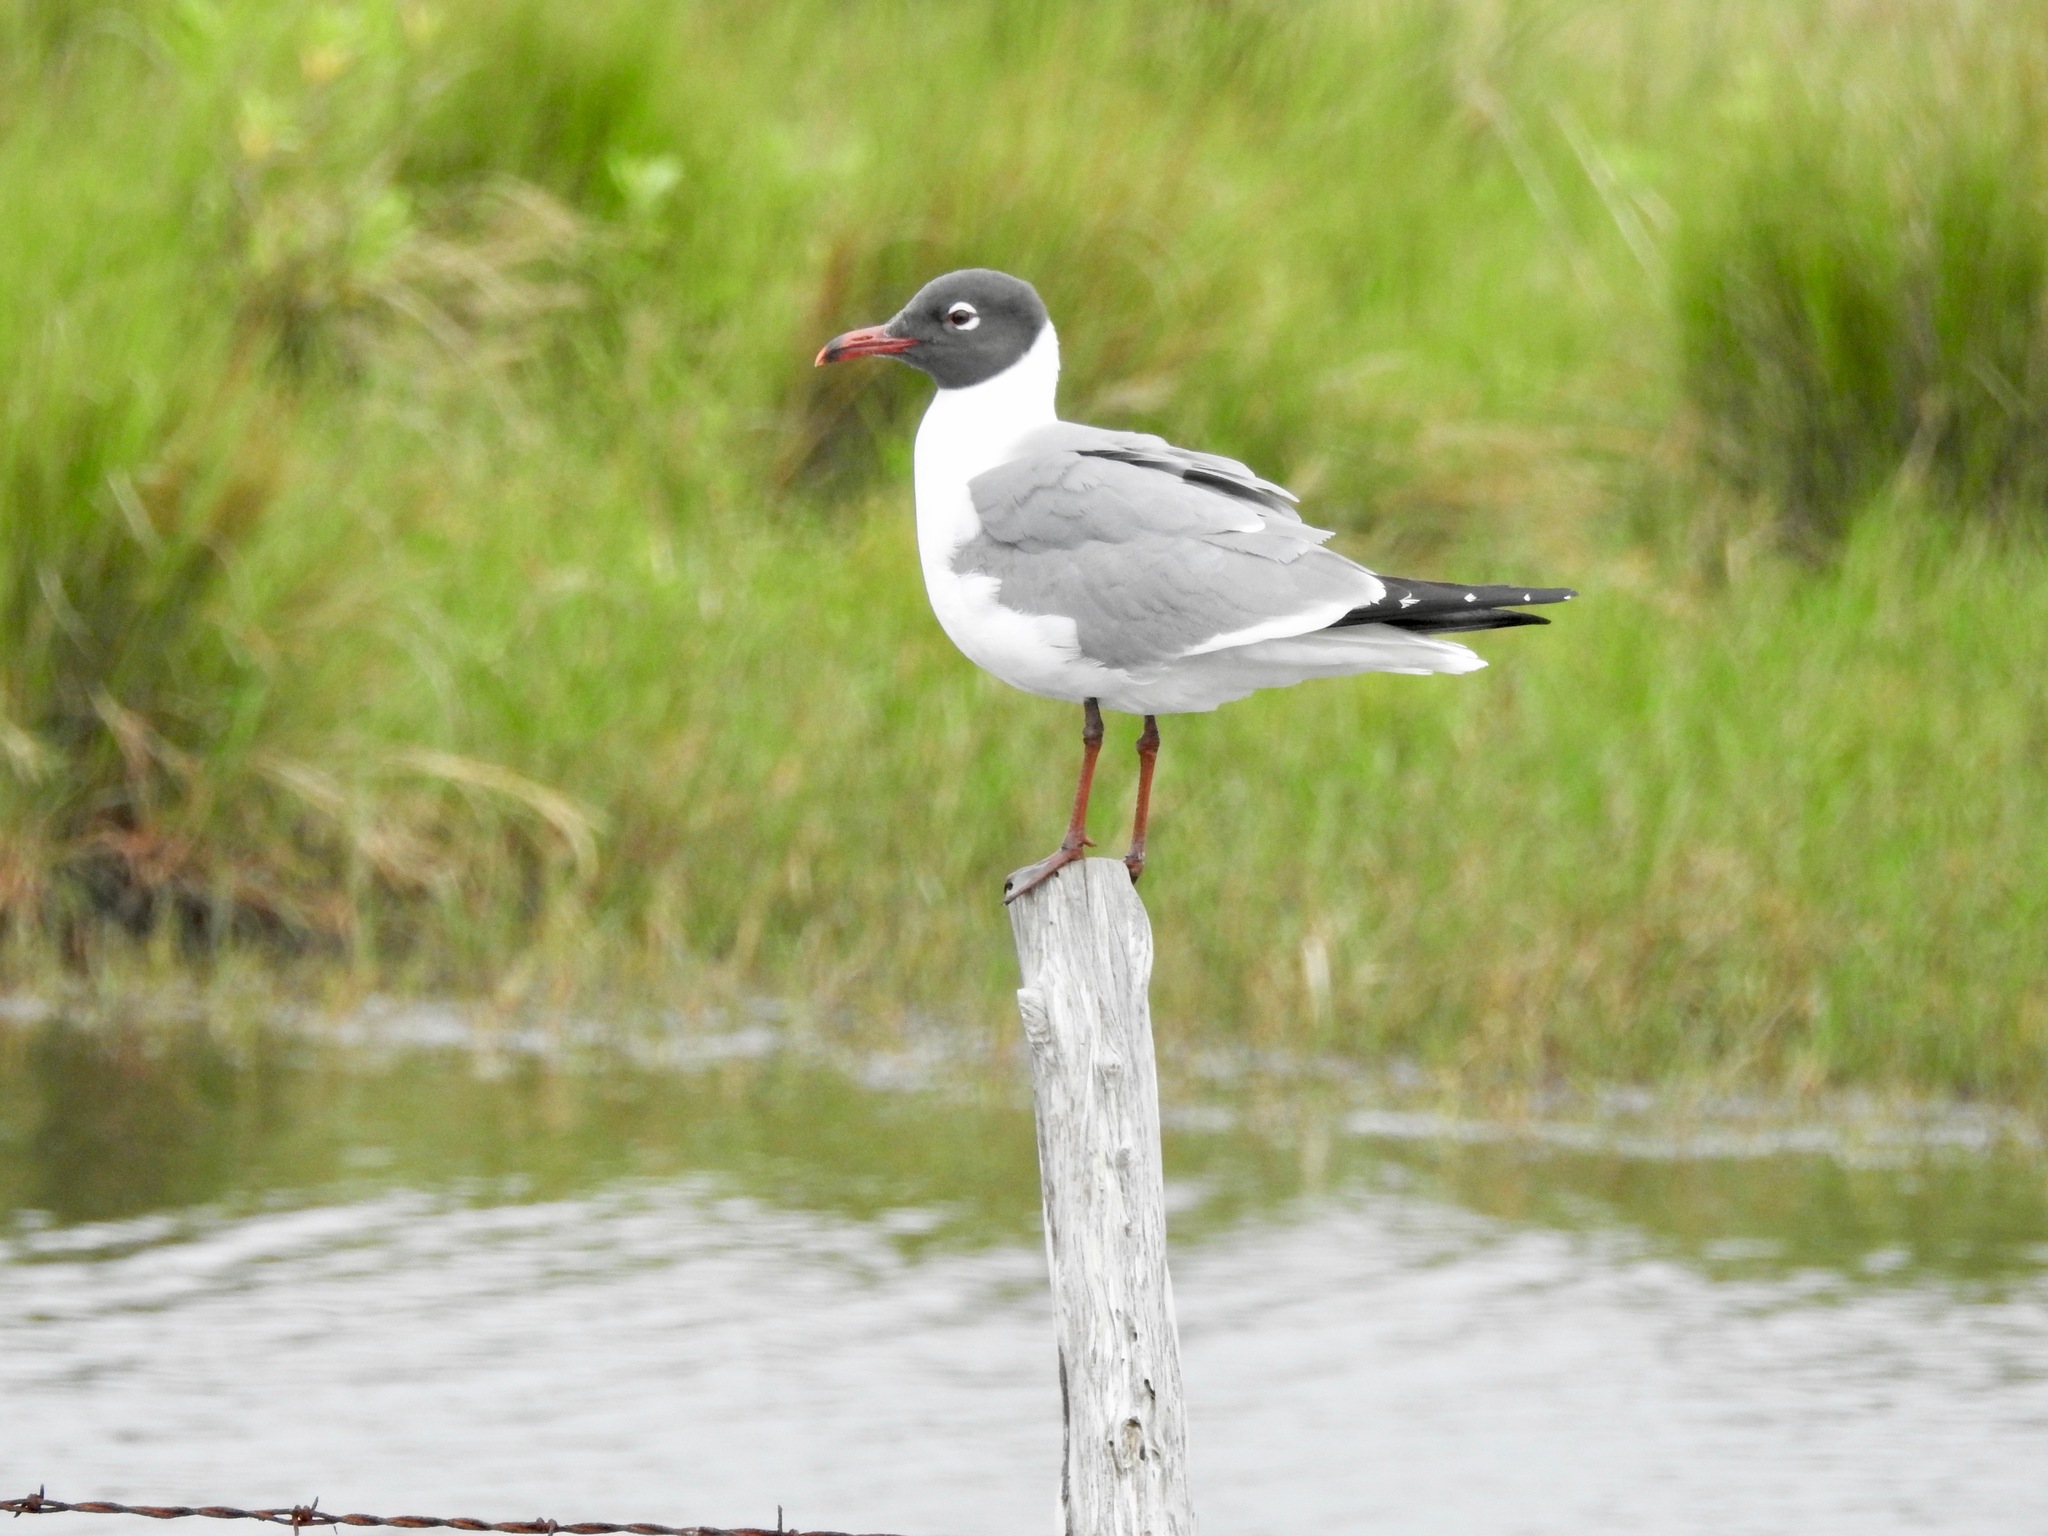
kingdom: Animalia
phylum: Chordata
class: Aves
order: Charadriiformes
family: Laridae
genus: Leucophaeus
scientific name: Leucophaeus atricilla
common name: Laughing gull
